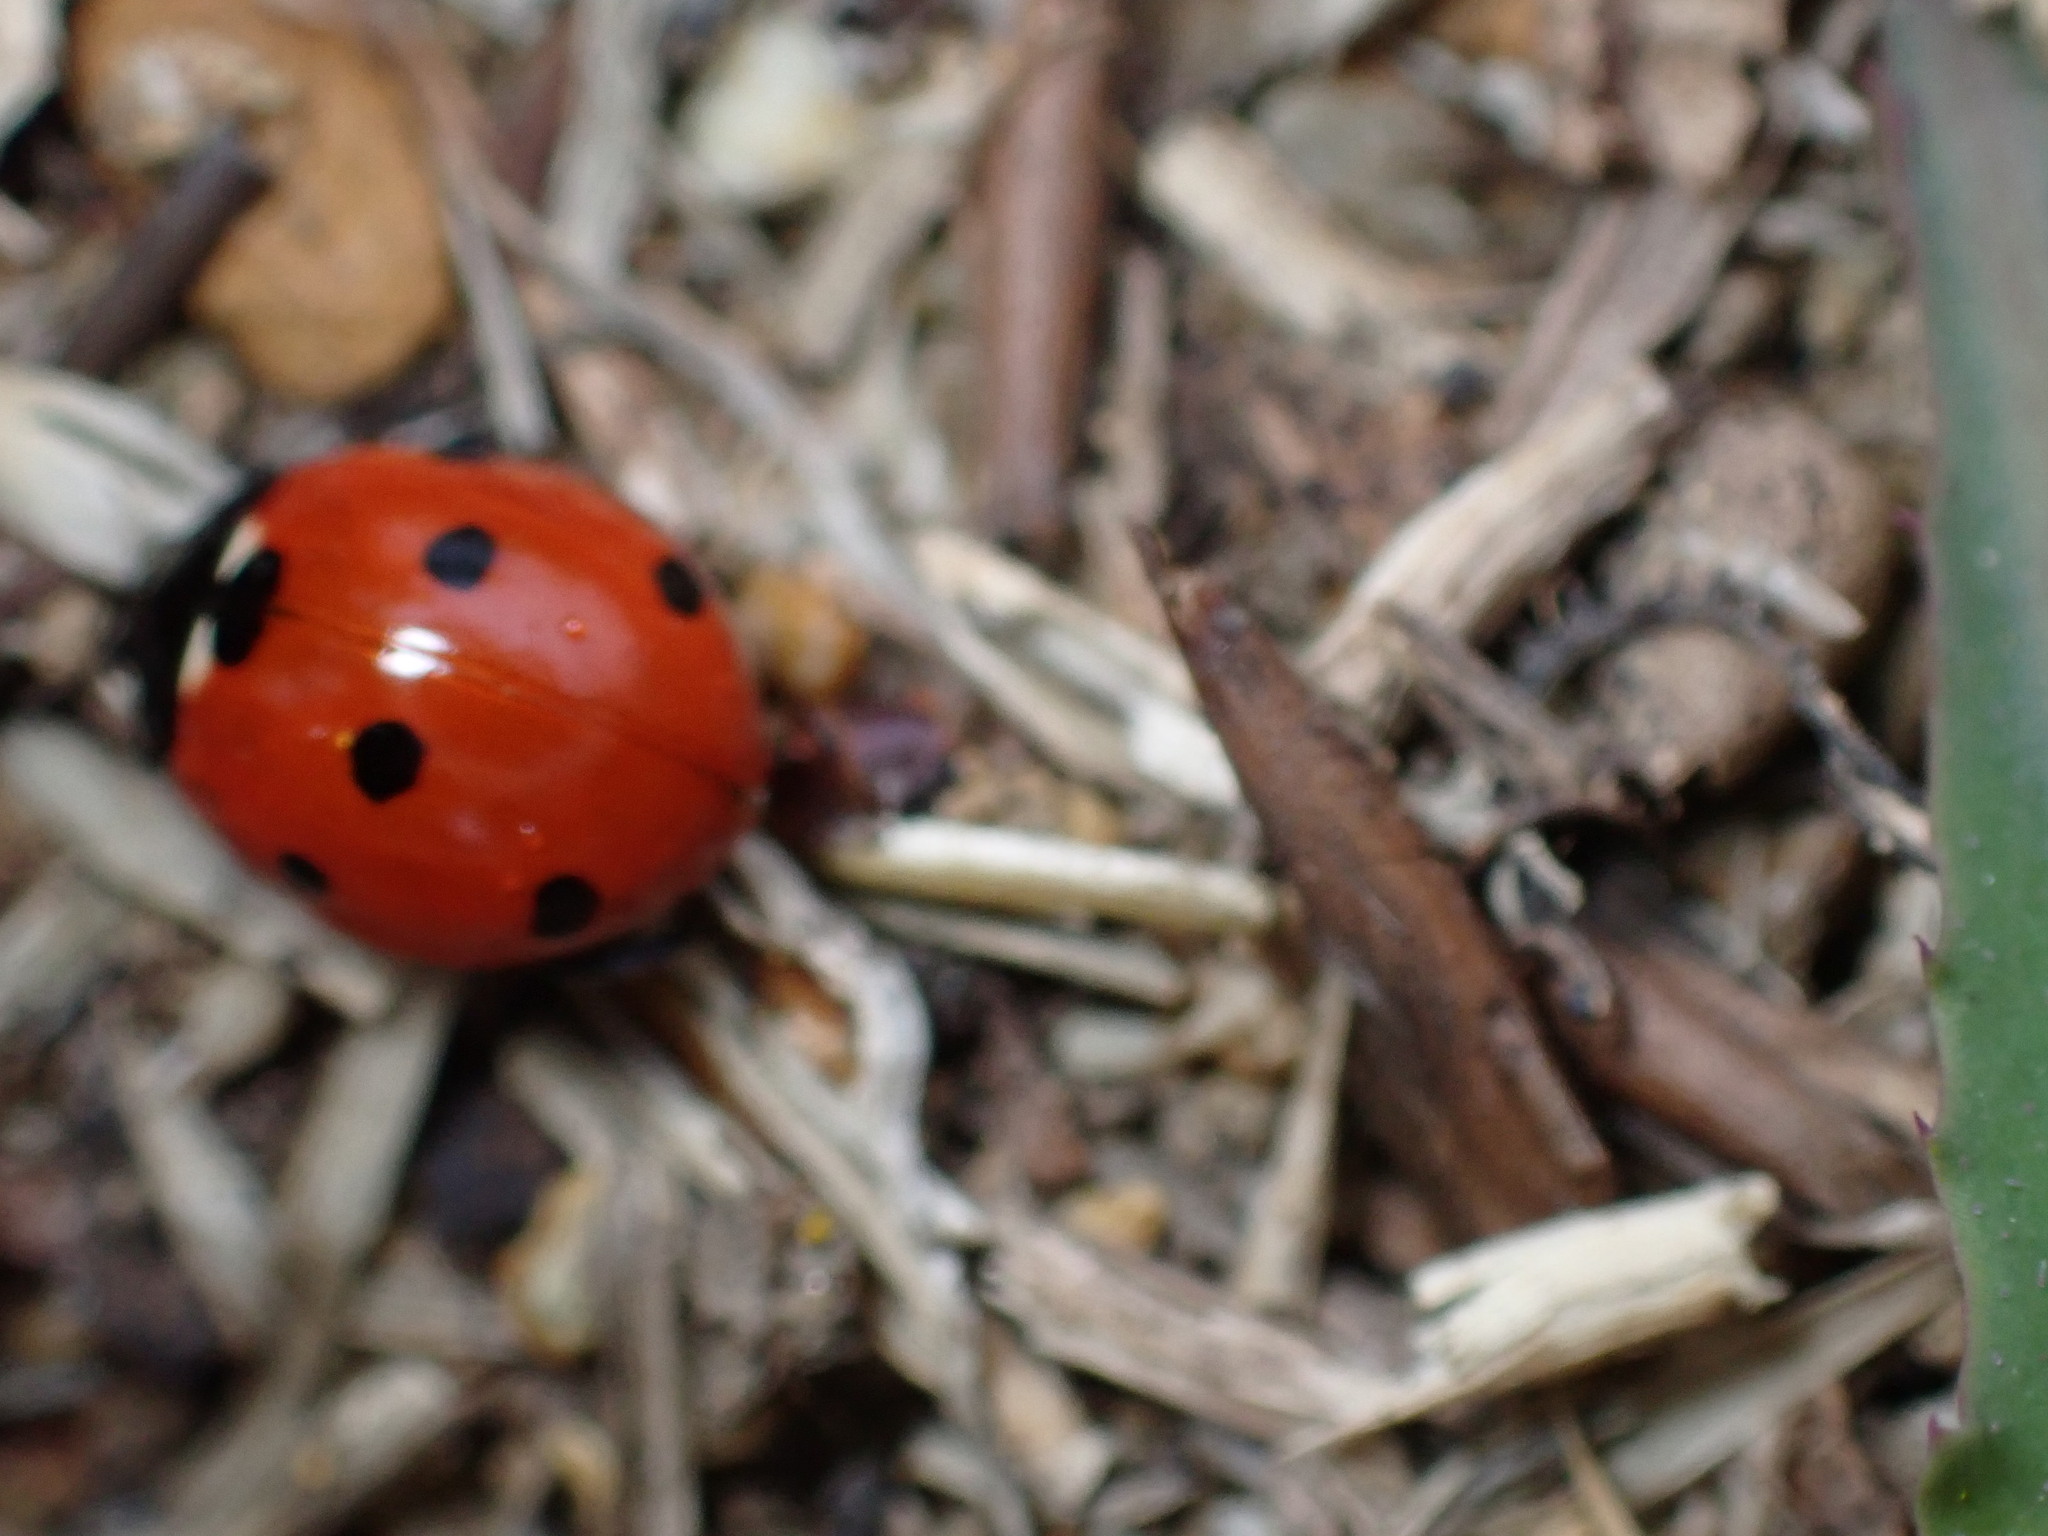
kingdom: Animalia
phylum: Arthropoda
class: Insecta
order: Coleoptera
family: Coccinellidae
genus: Coccinella
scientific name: Coccinella septempunctata
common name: Sevenspotted lady beetle
